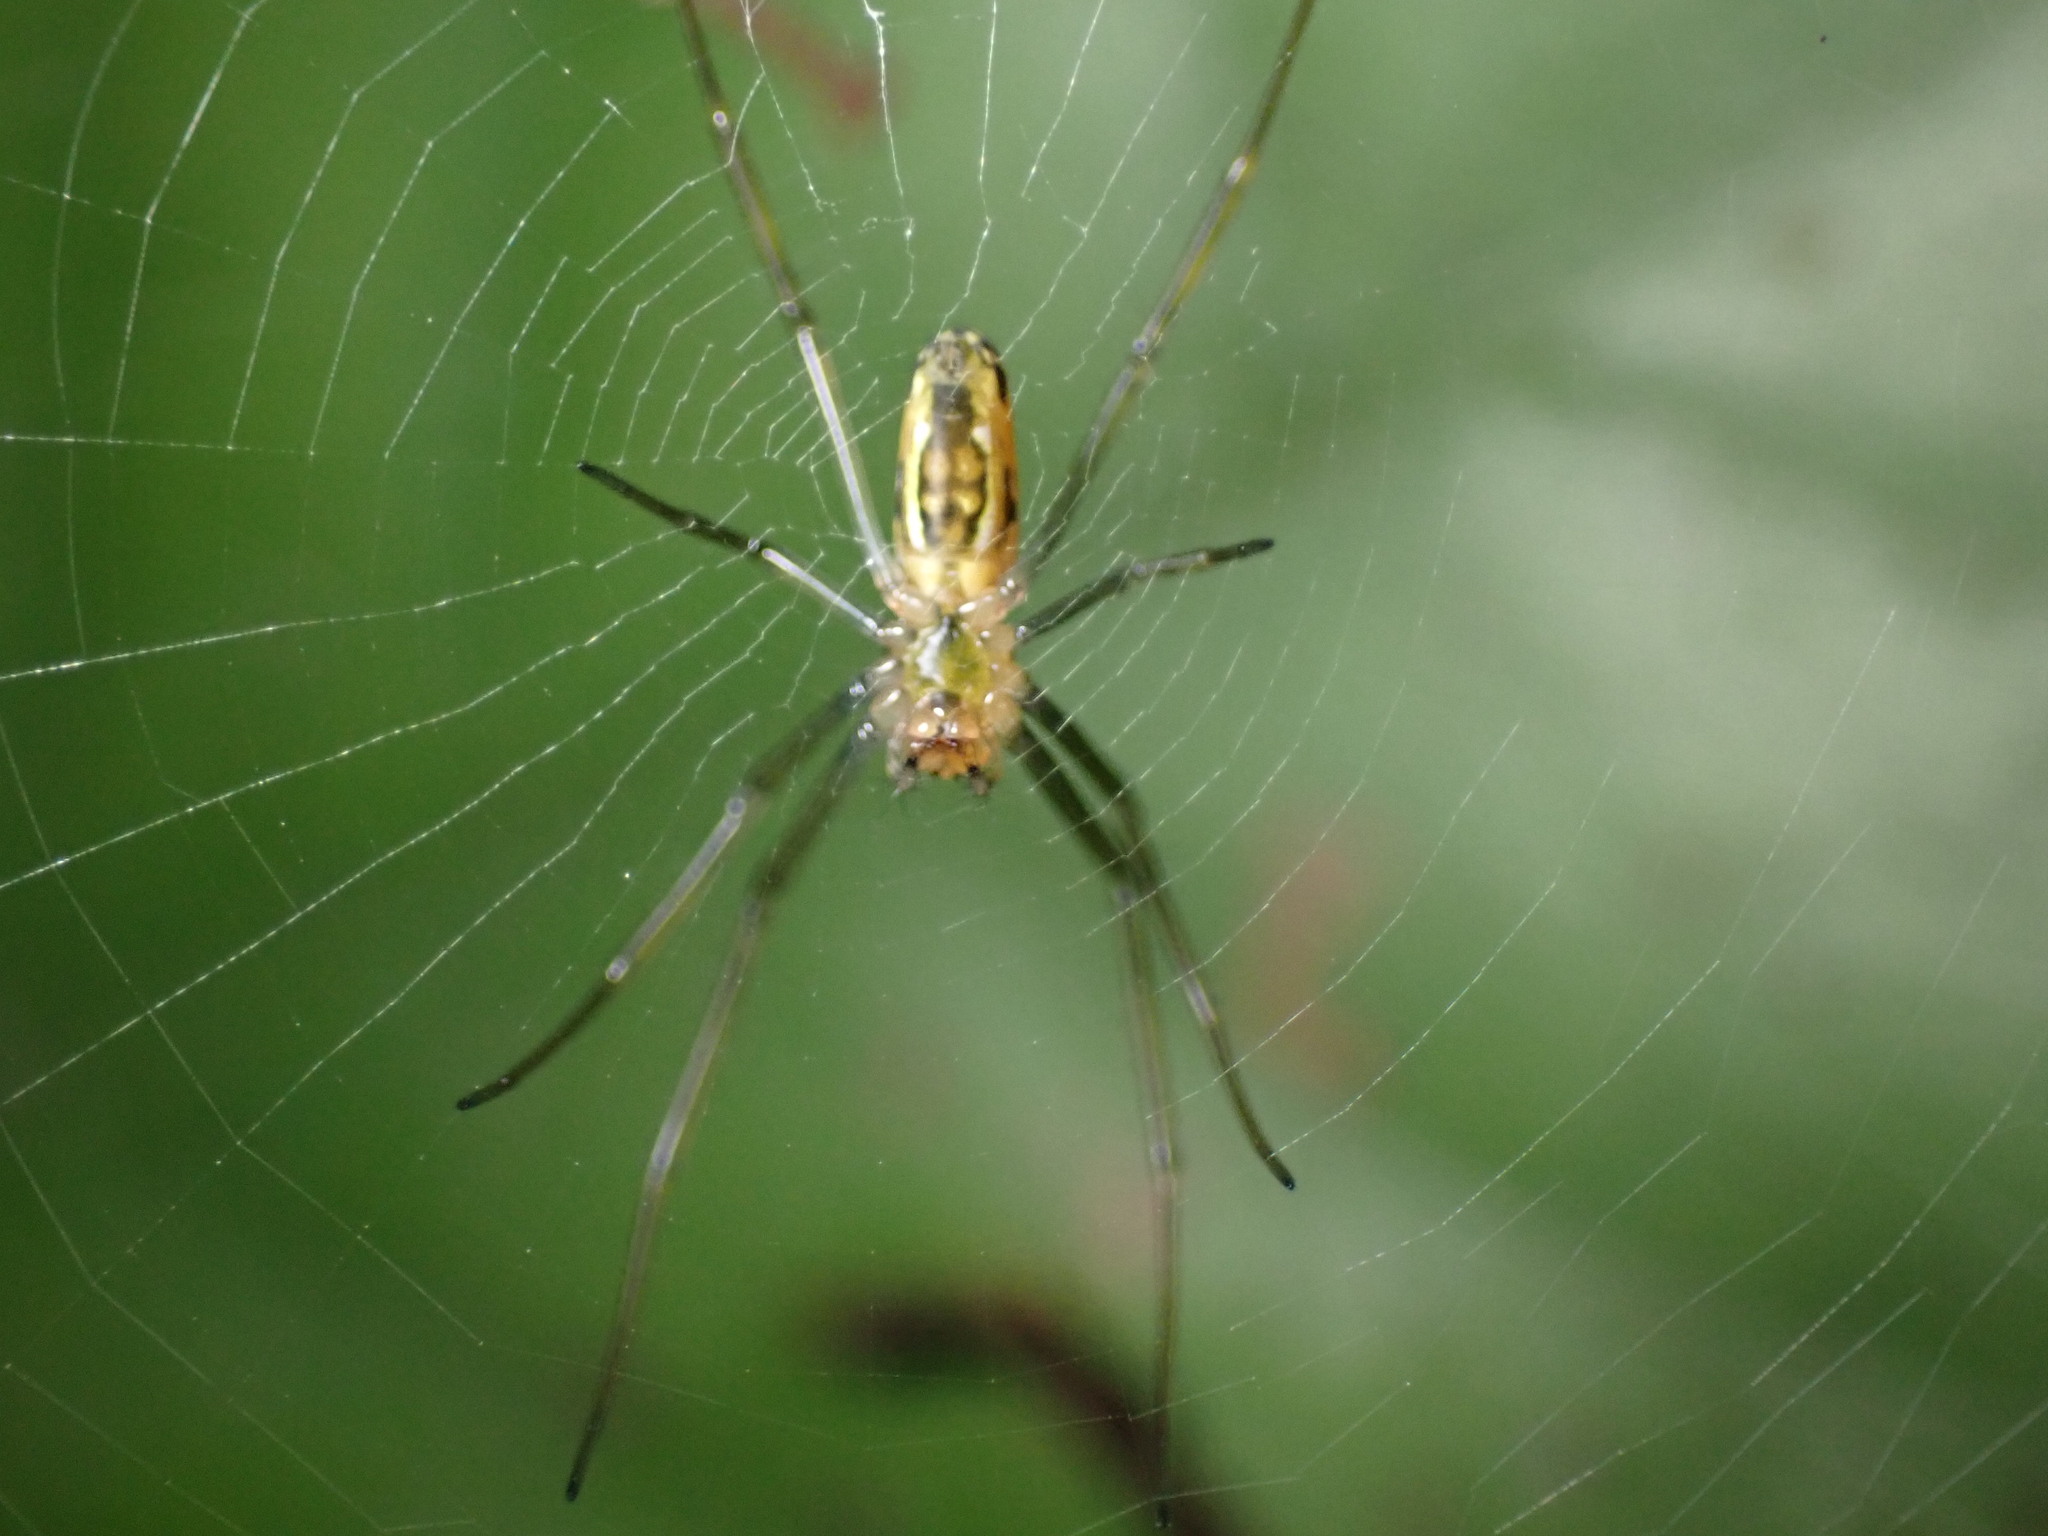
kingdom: Animalia
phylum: Arthropoda
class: Arachnida
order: Araneae
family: Araneidae
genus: Nephila
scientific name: Nephila pilipes
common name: Giant golden orb weaver
